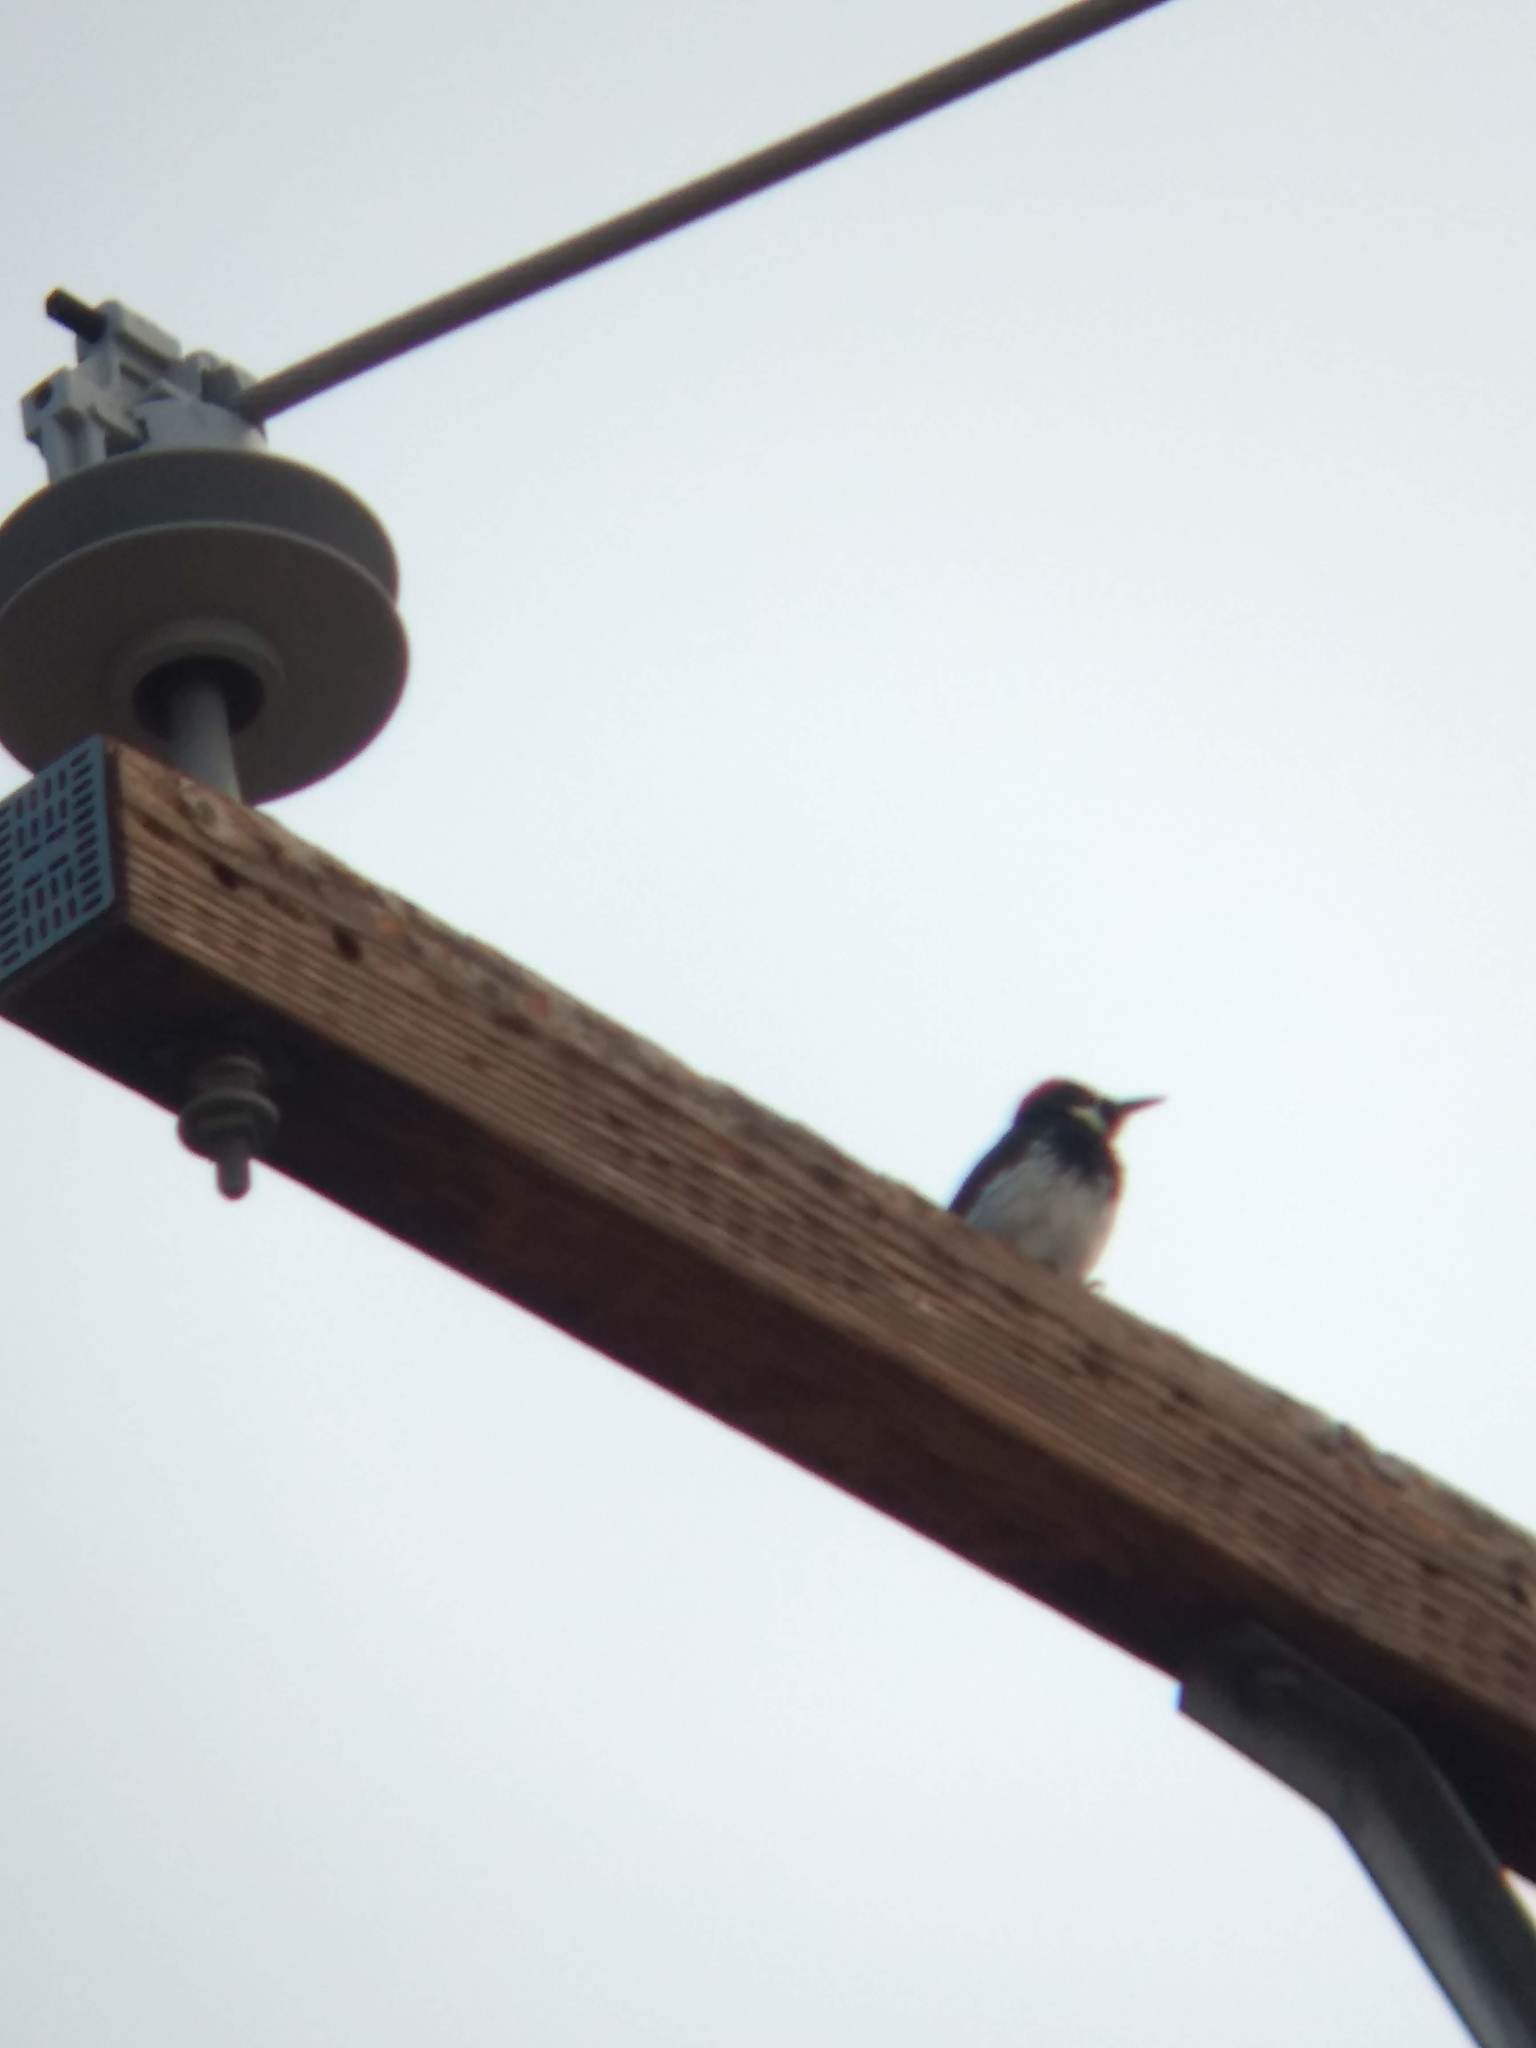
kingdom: Animalia
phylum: Chordata
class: Aves
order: Piciformes
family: Picidae
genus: Melanerpes
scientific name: Melanerpes formicivorus
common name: Acorn woodpecker
